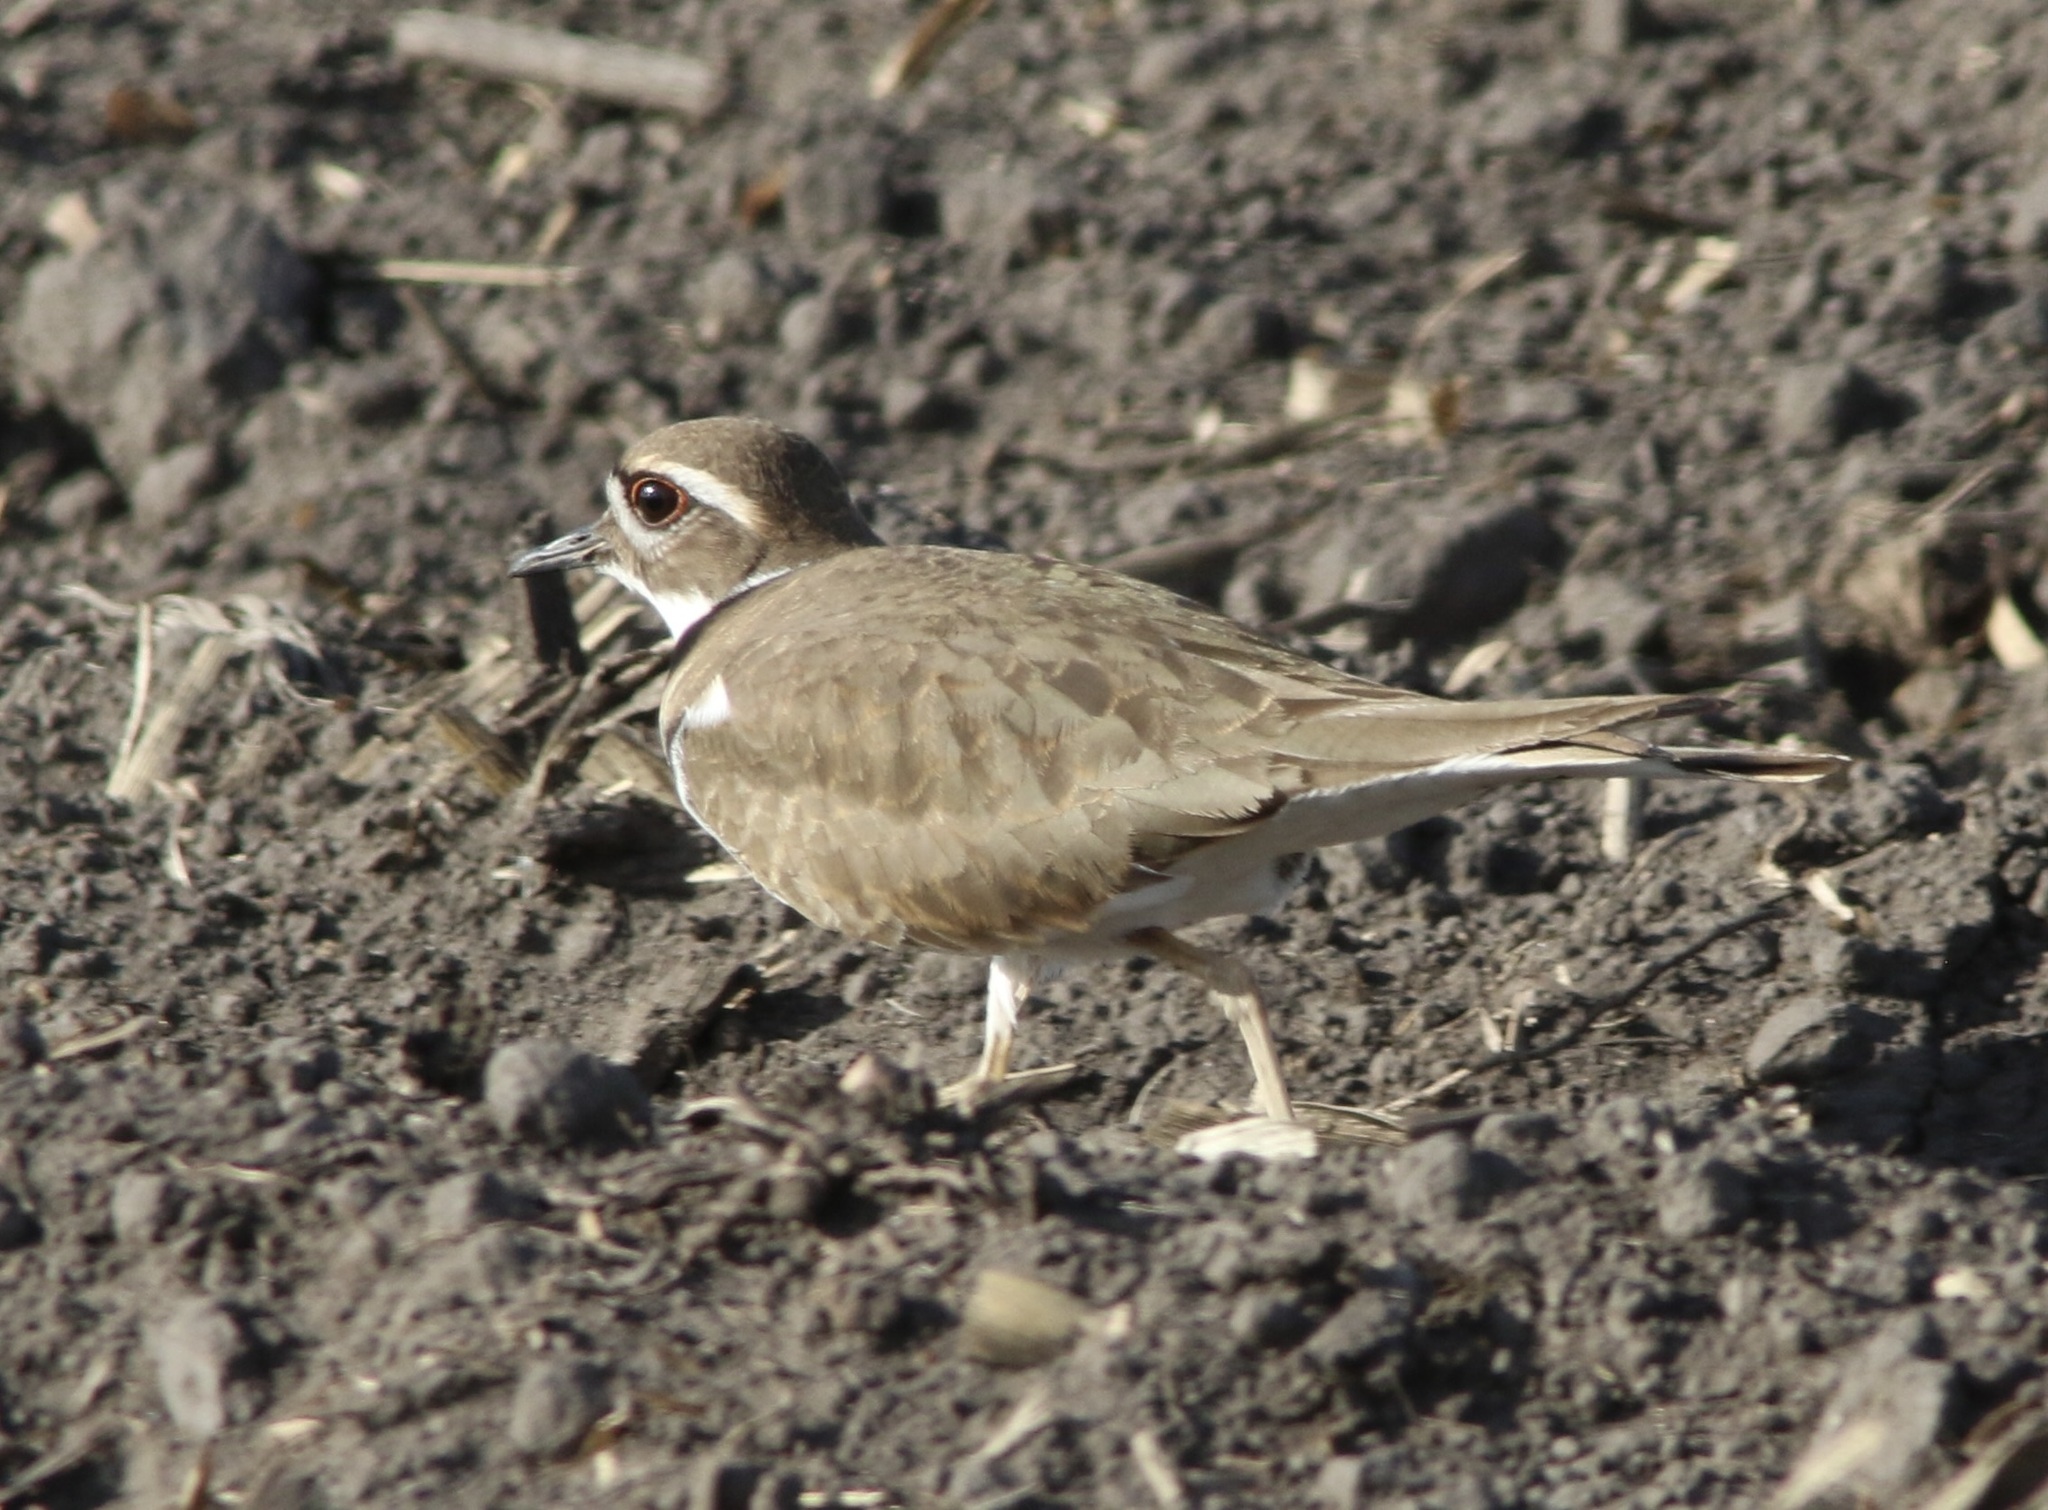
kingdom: Animalia
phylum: Chordata
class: Aves
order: Charadriiformes
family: Charadriidae
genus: Charadrius
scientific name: Charadrius vociferus
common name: Killdeer
